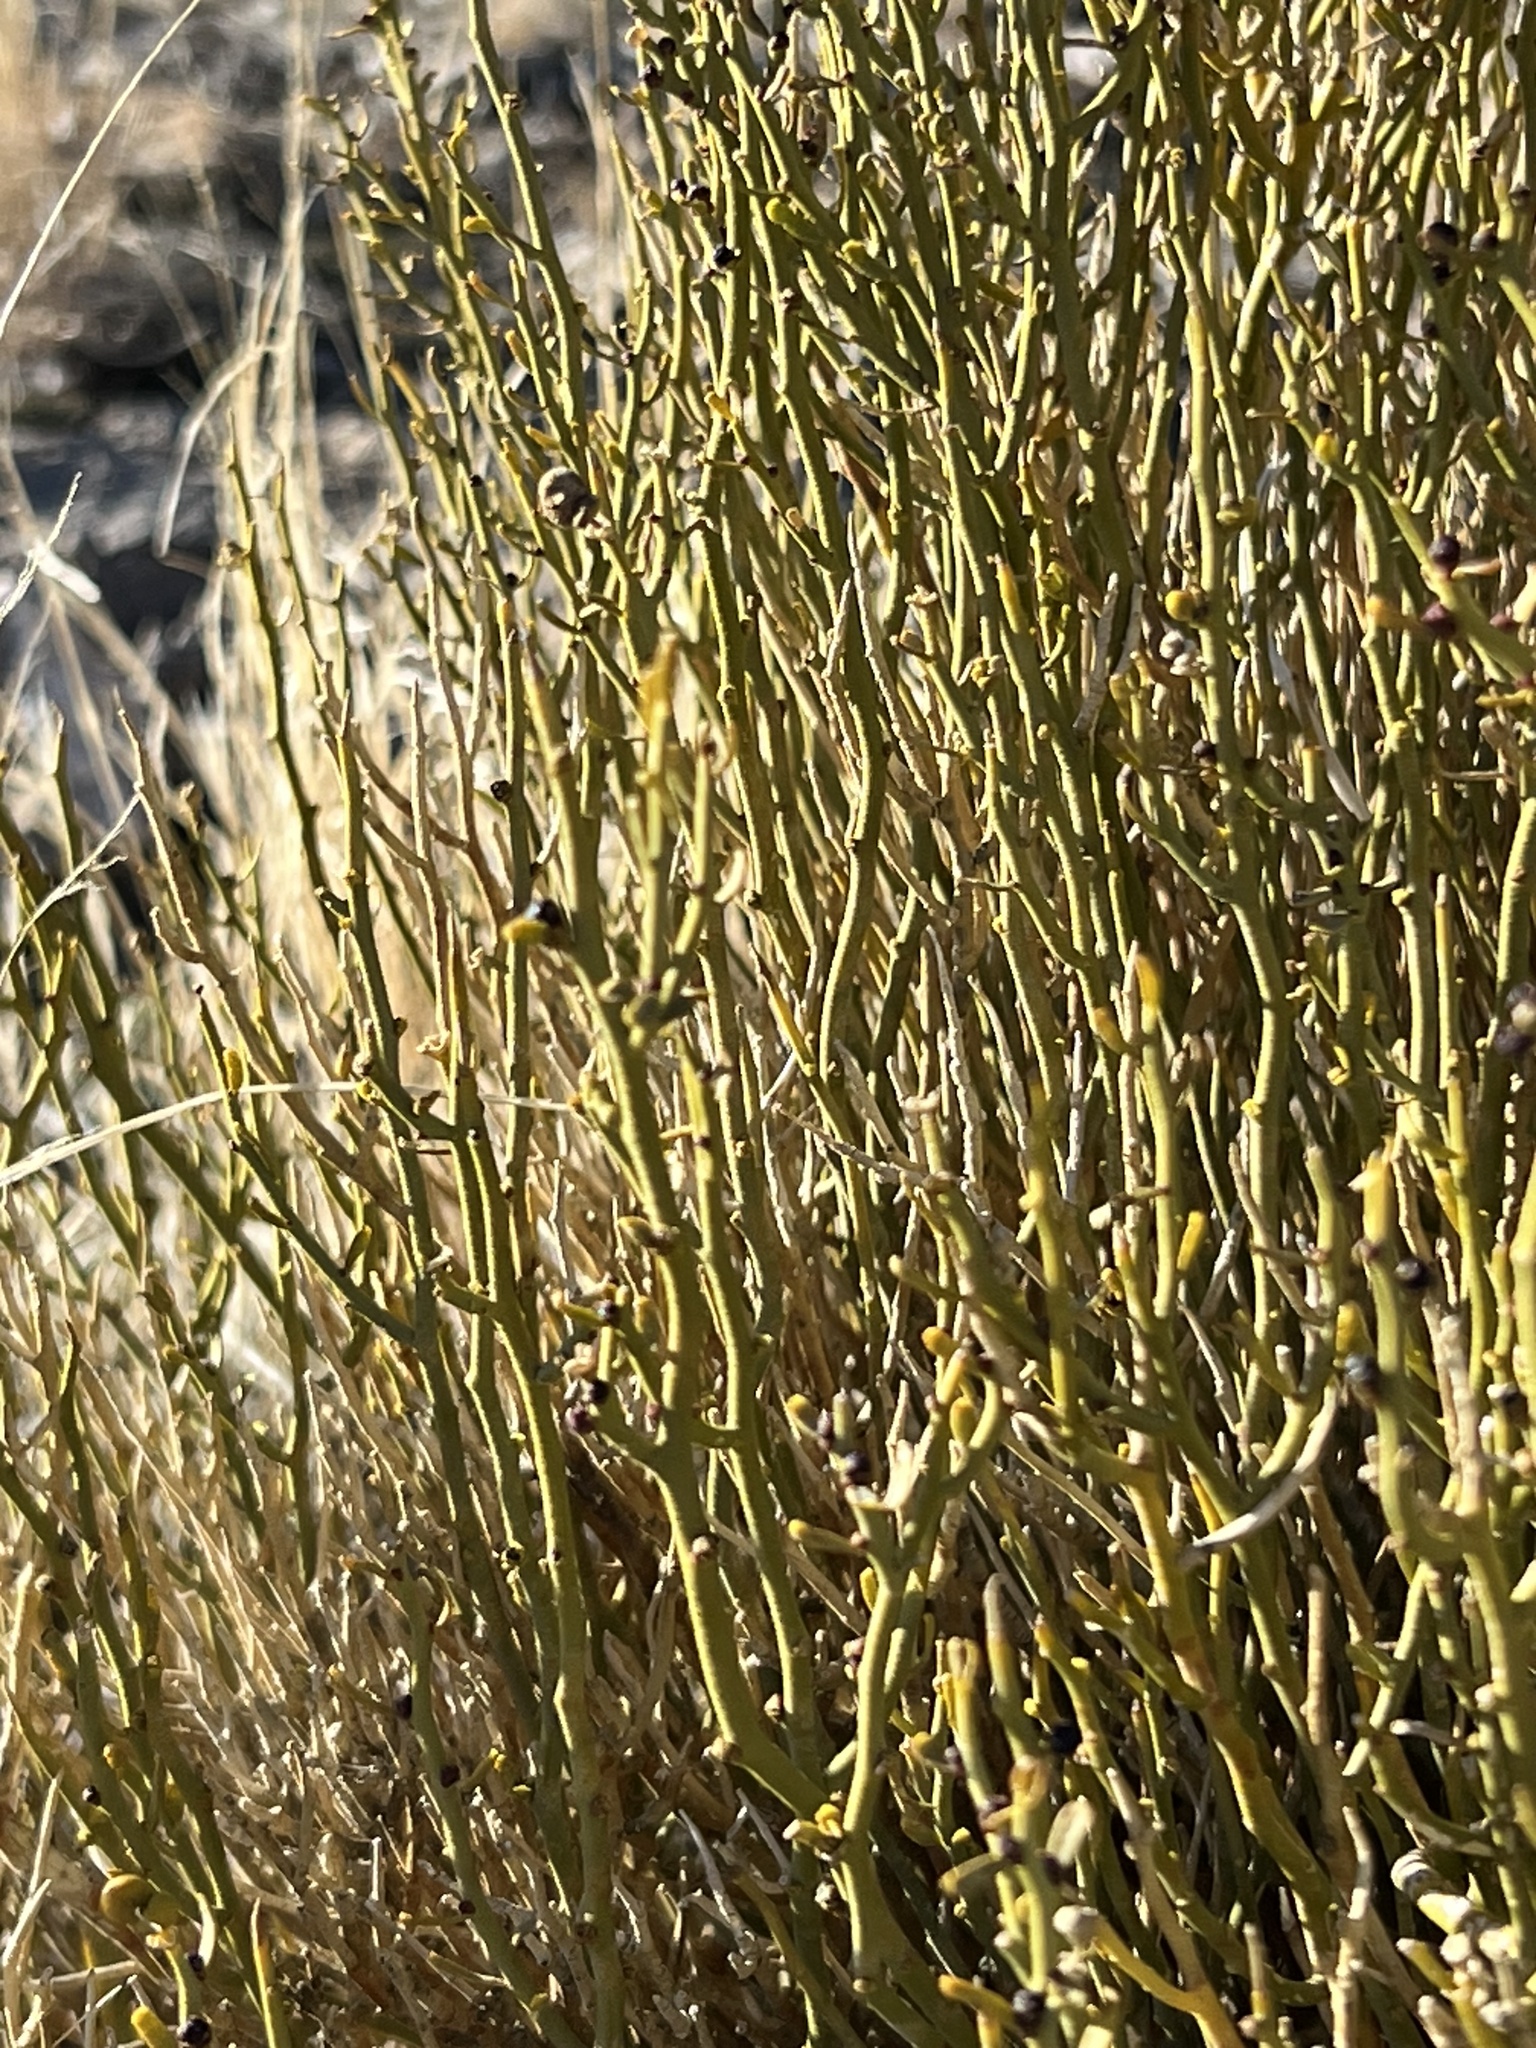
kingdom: Plantae
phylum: Tracheophyta
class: Magnoliopsida
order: Sapindales
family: Rutaceae
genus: Thamnosma
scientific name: Thamnosma montana
